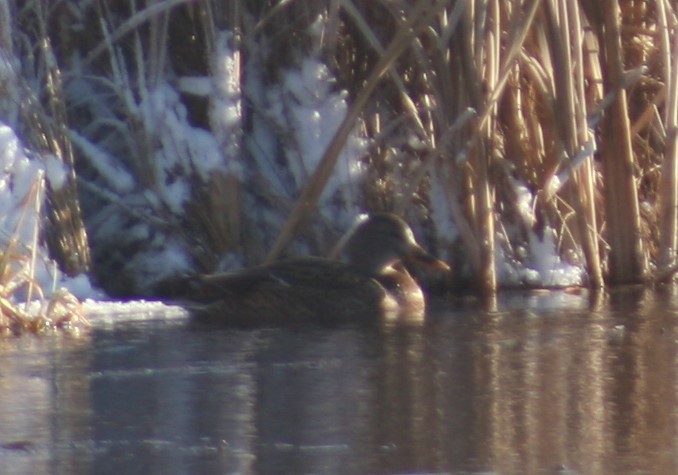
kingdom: Animalia
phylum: Chordata
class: Aves
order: Anseriformes
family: Anatidae
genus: Anas
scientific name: Anas platyrhynchos
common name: Mallard
